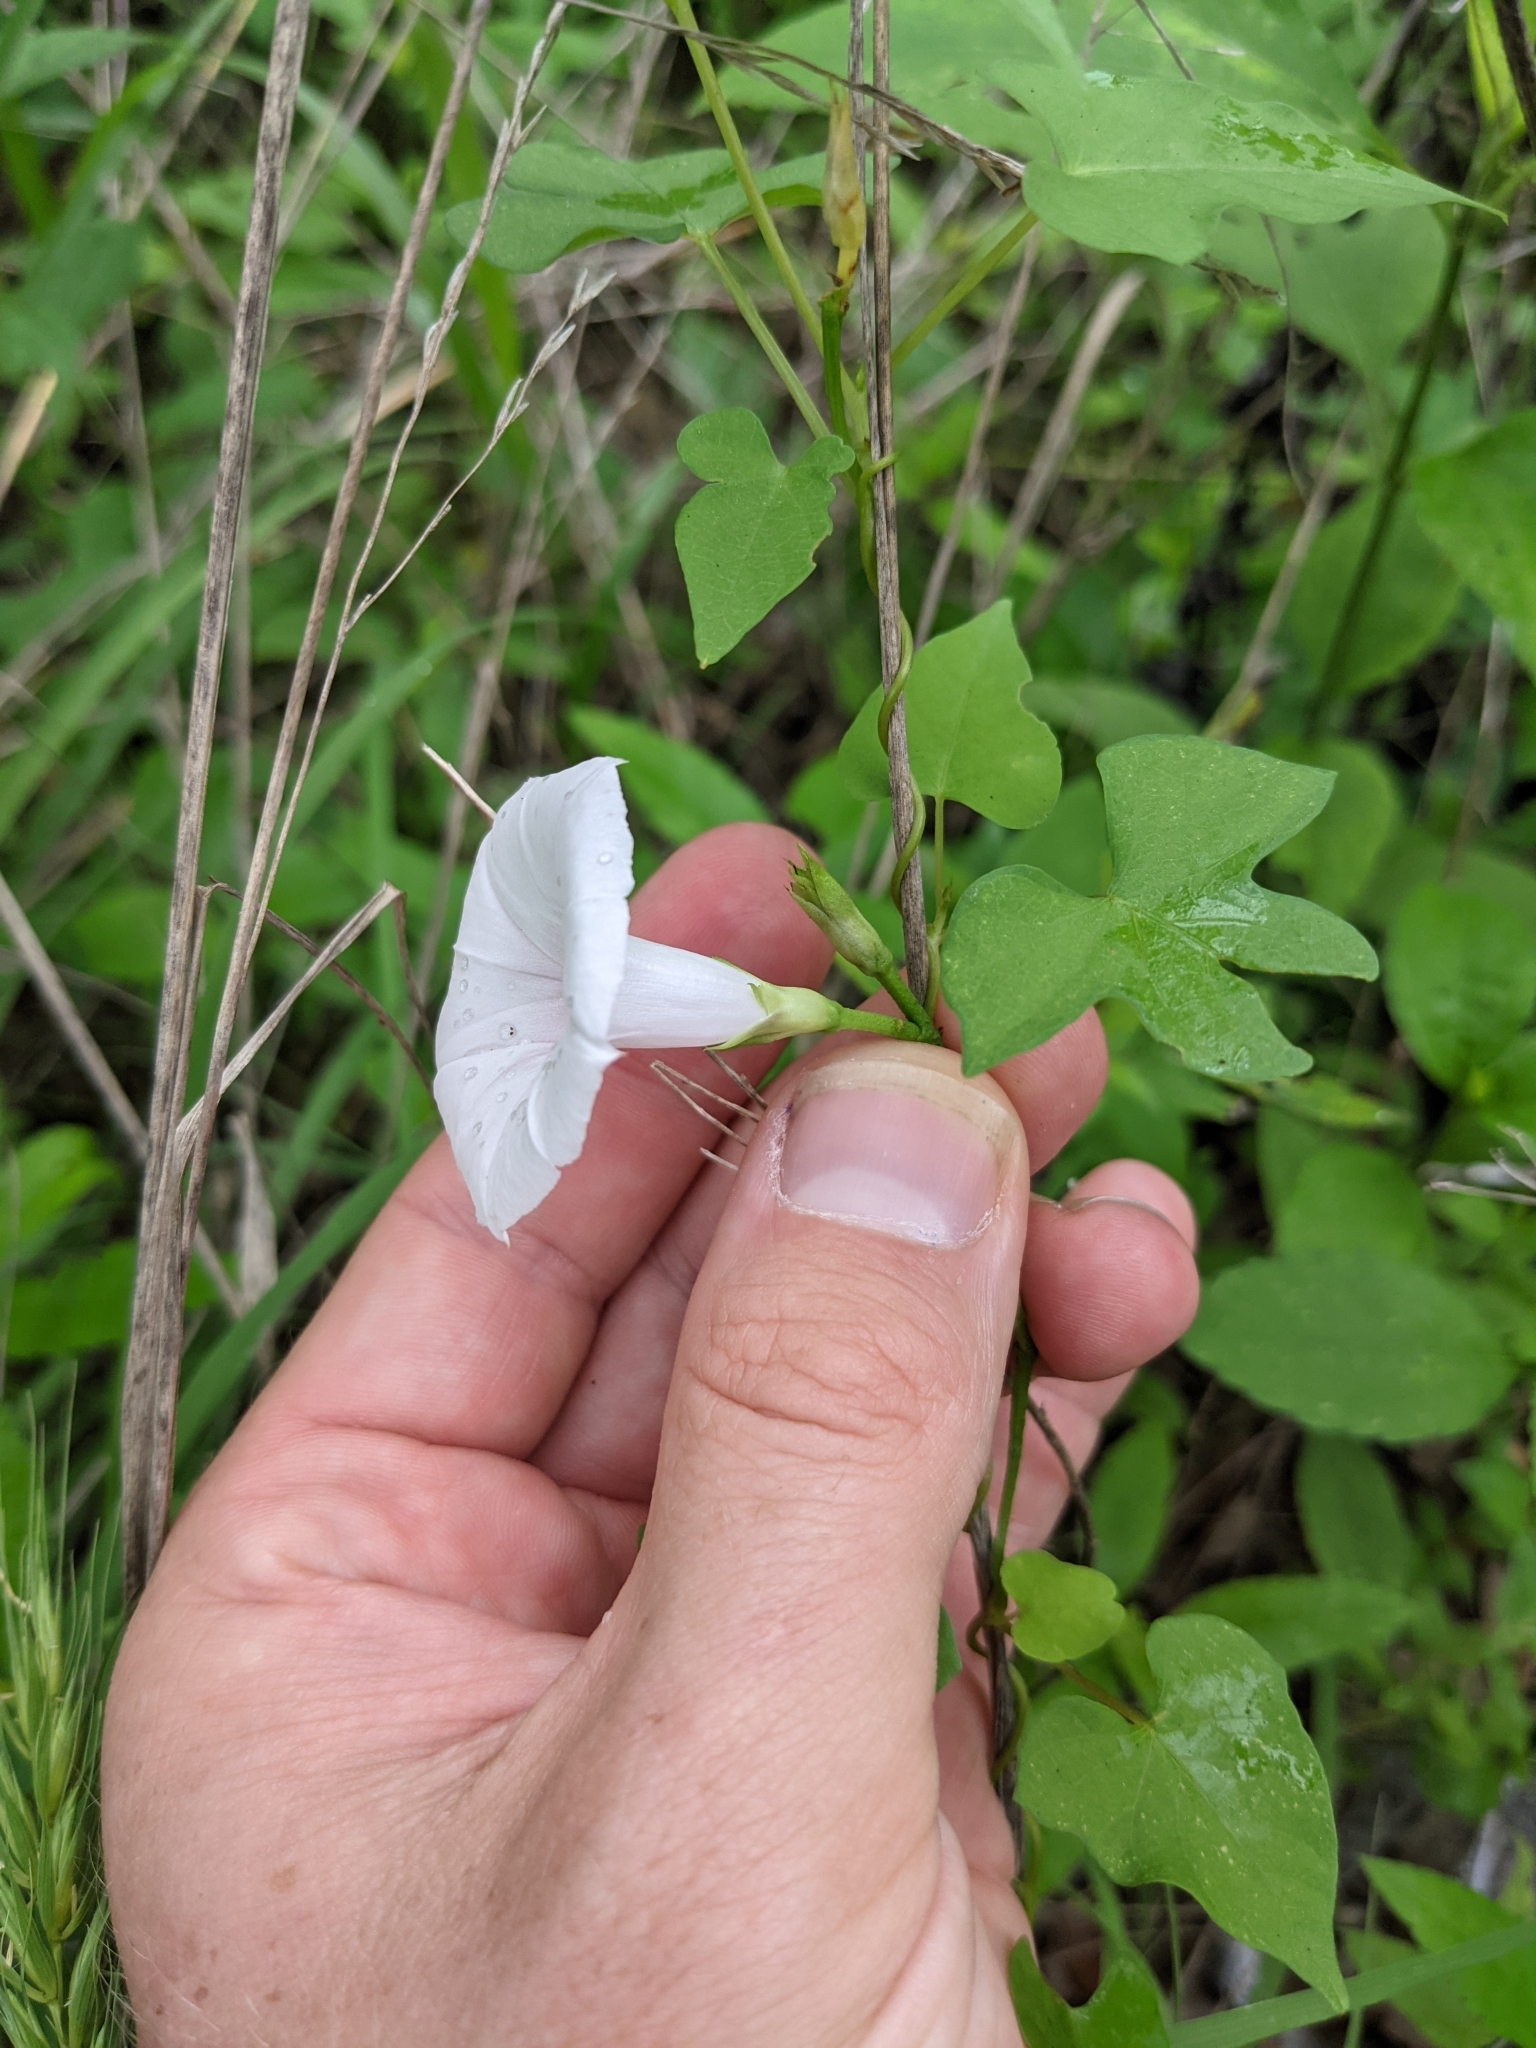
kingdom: Plantae
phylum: Tracheophyta
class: Magnoliopsida
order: Solanales
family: Convolvulaceae
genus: Ipomoea
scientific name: Ipomoea cordatotriloba
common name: Cotton morning glory
